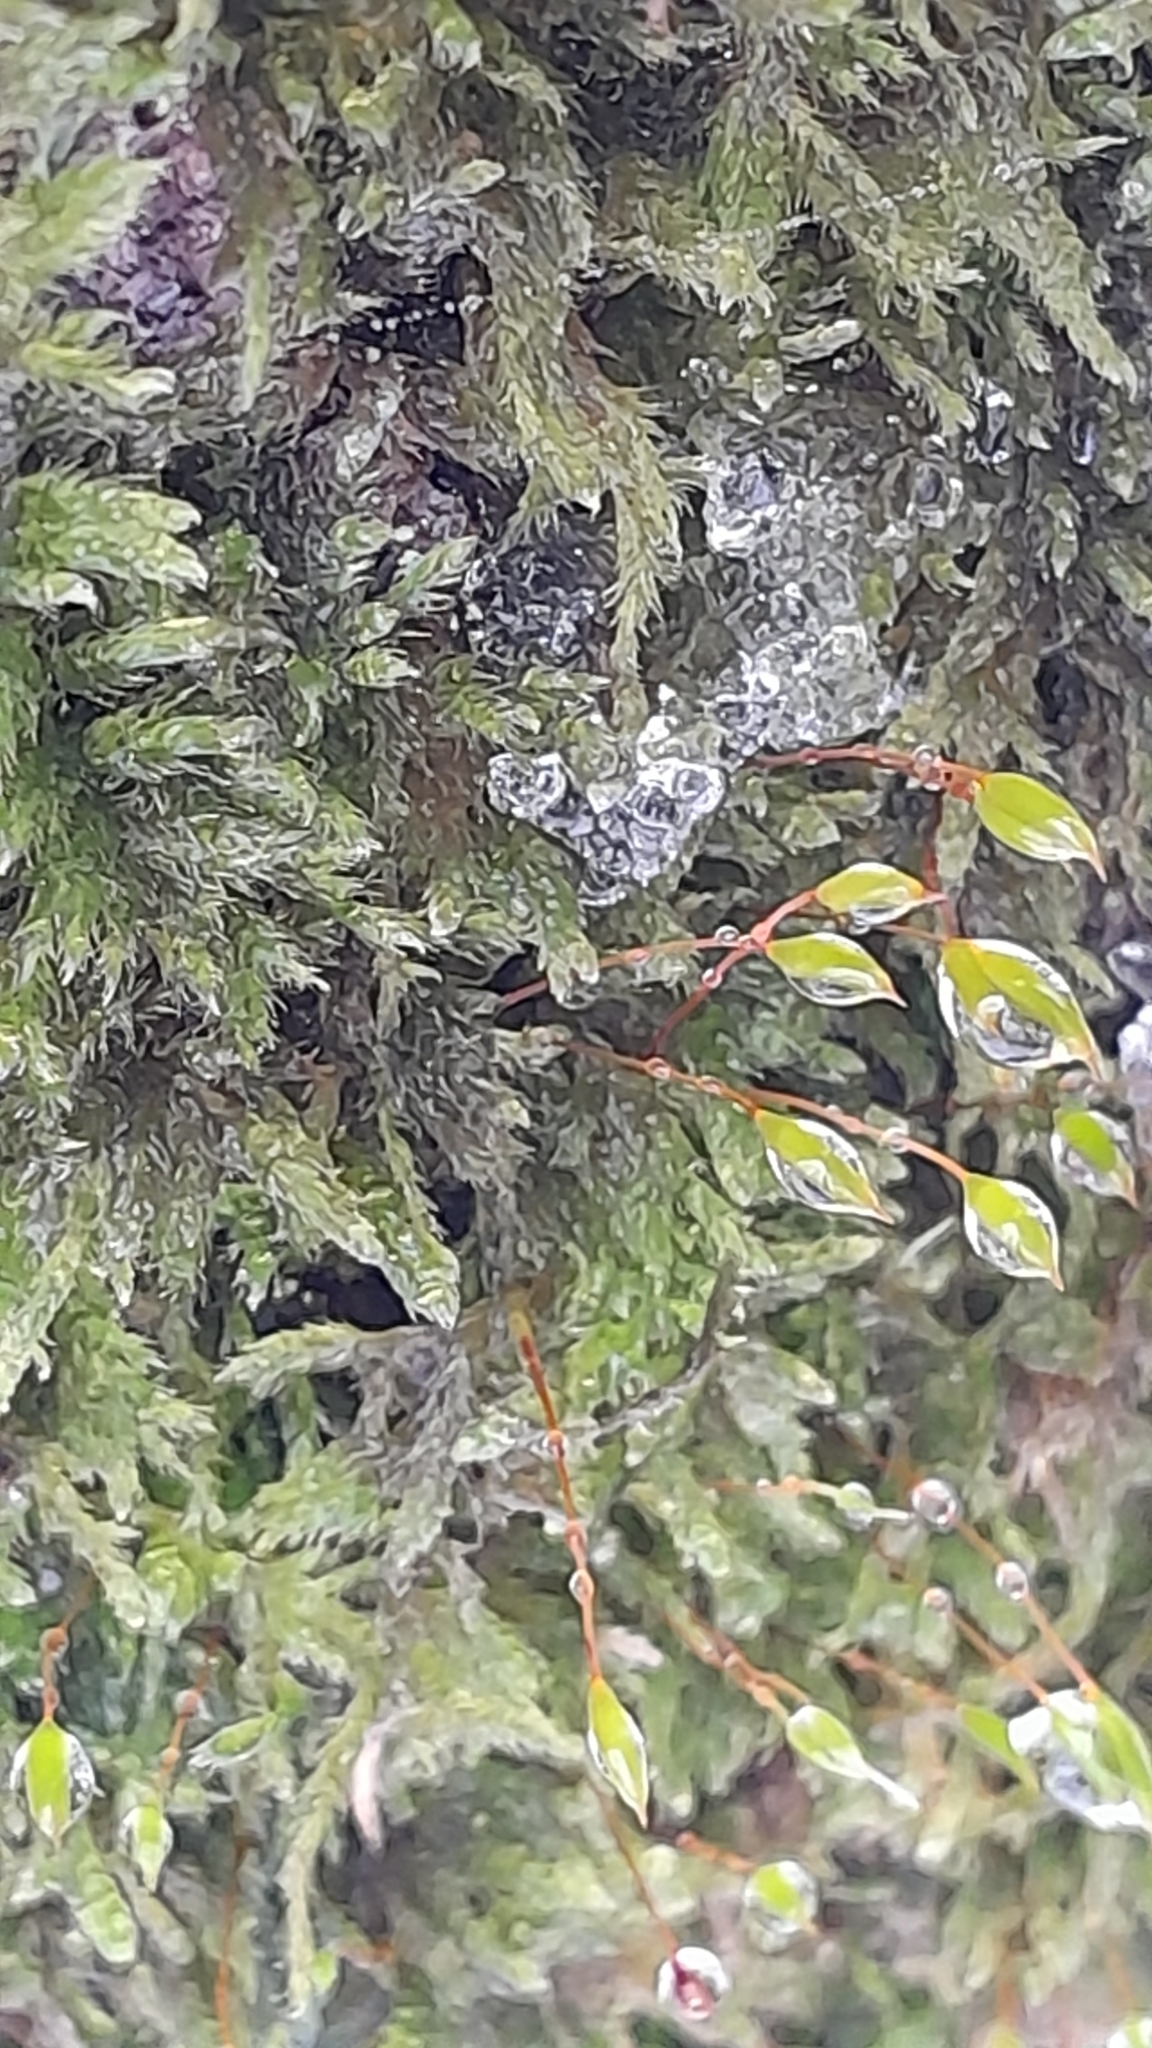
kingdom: Plantae
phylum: Bryophyta
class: Bryopsida
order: Hypnales
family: Hypnaceae
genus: Hypnum
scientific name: Hypnum cupressiforme
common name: Cypress-leaved plait-moss
